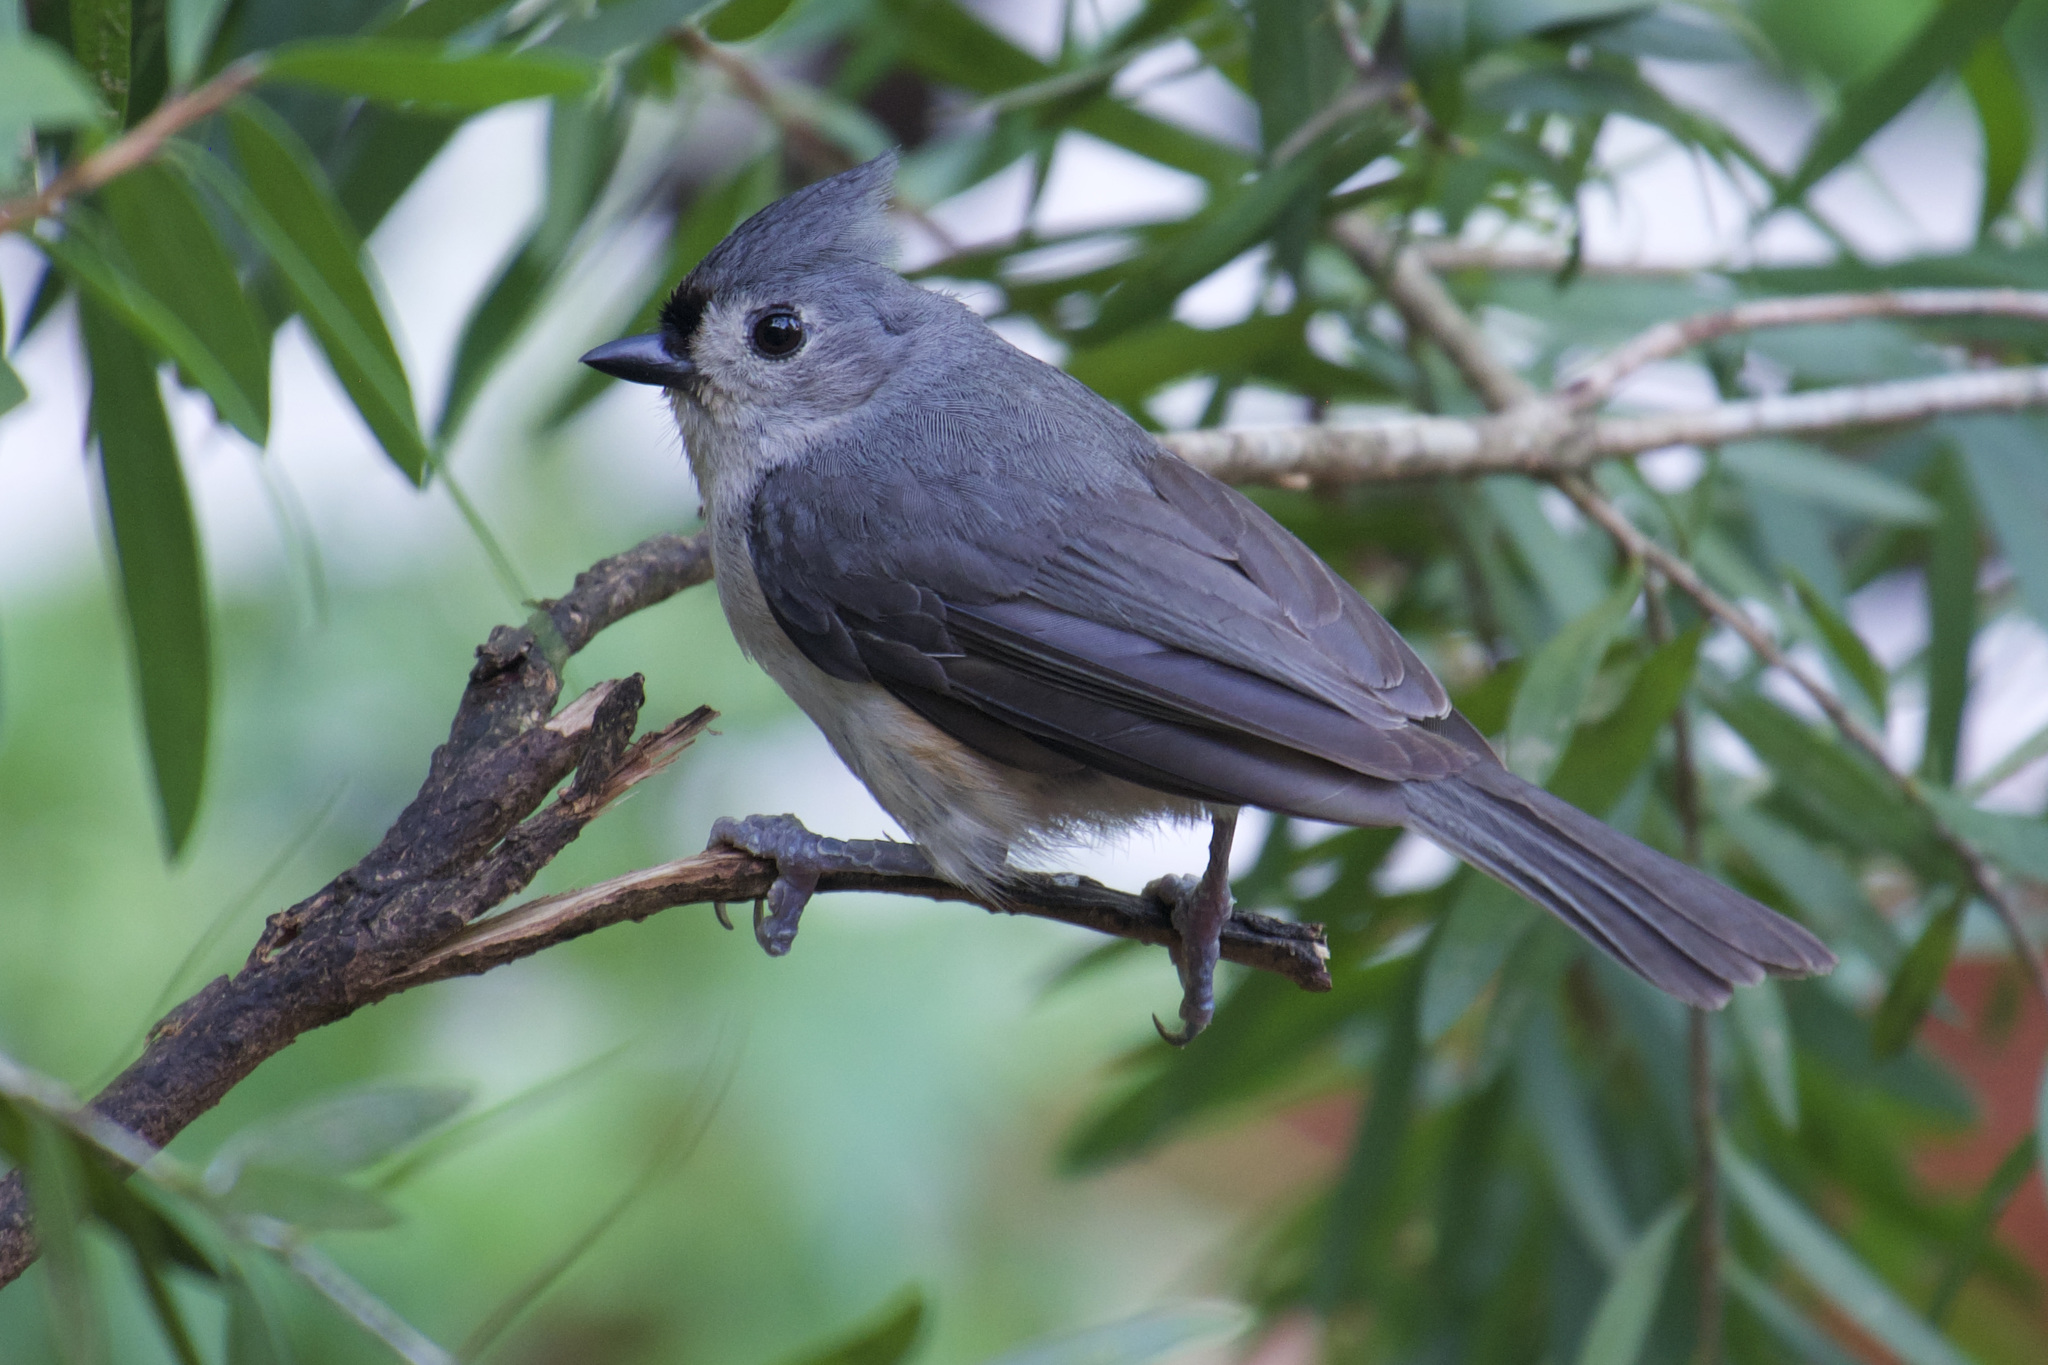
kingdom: Animalia
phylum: Chordata
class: Aves
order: Passeriformes
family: Paridae
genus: Baeolophus
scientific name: Baeolophus bicolor
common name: Tufted titmouse
